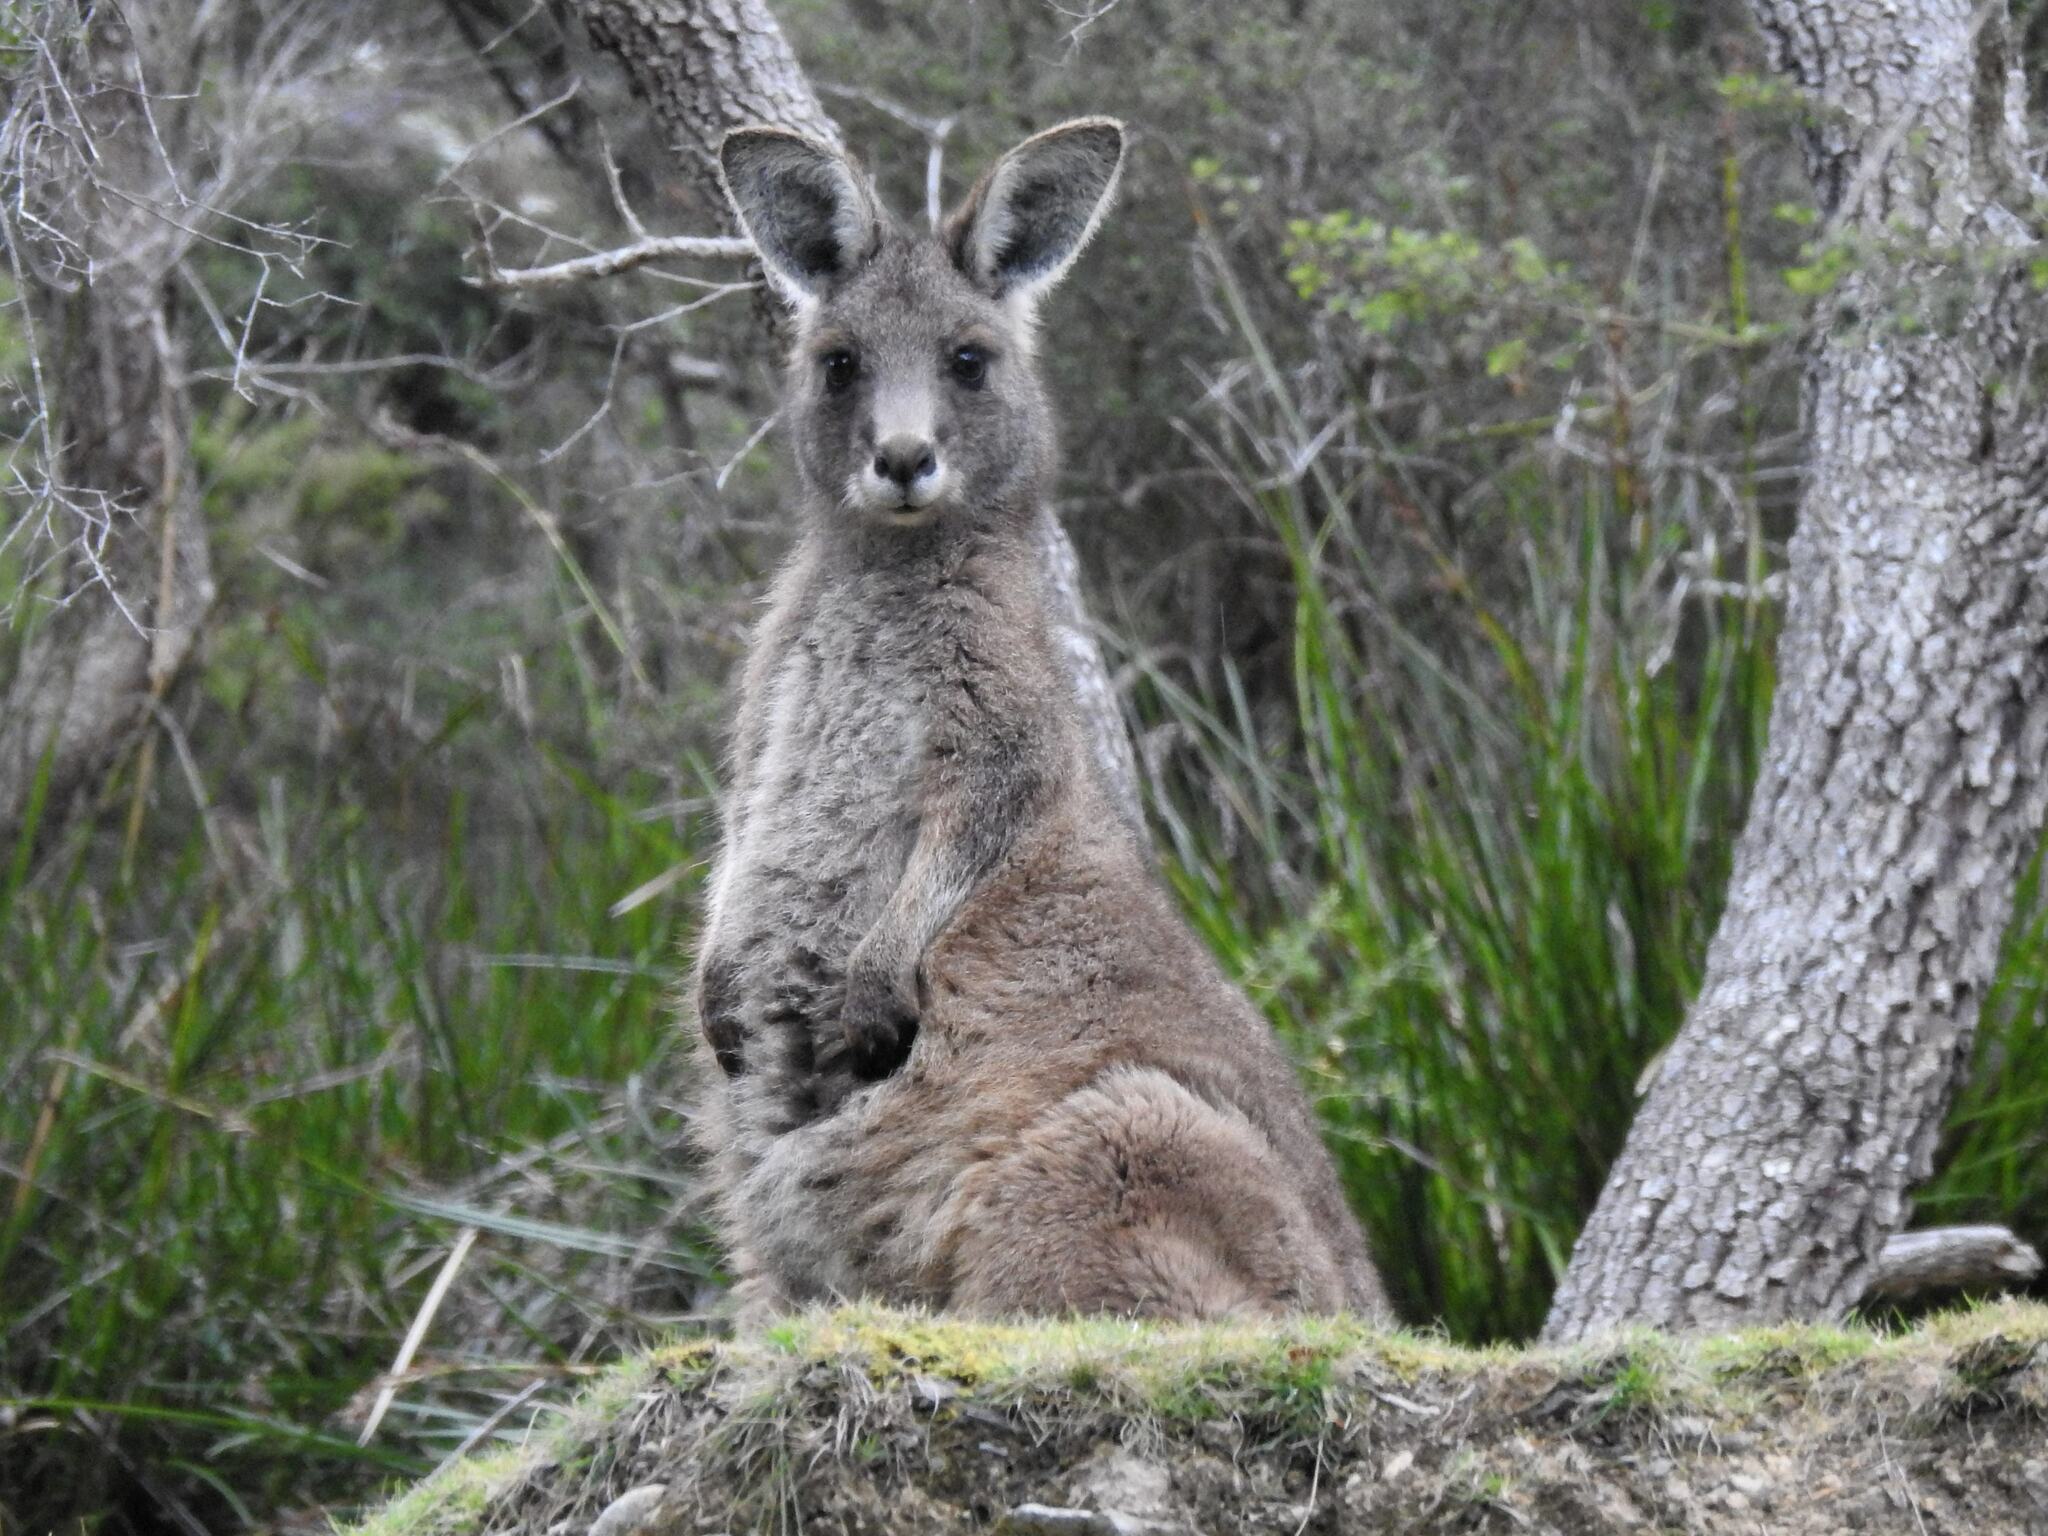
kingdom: Animalia
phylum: Chordata
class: Mammalia
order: Diprotodontia
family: Macropodidae
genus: Macropus
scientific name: Macropus giganteus
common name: Eastern grey kangaroo
